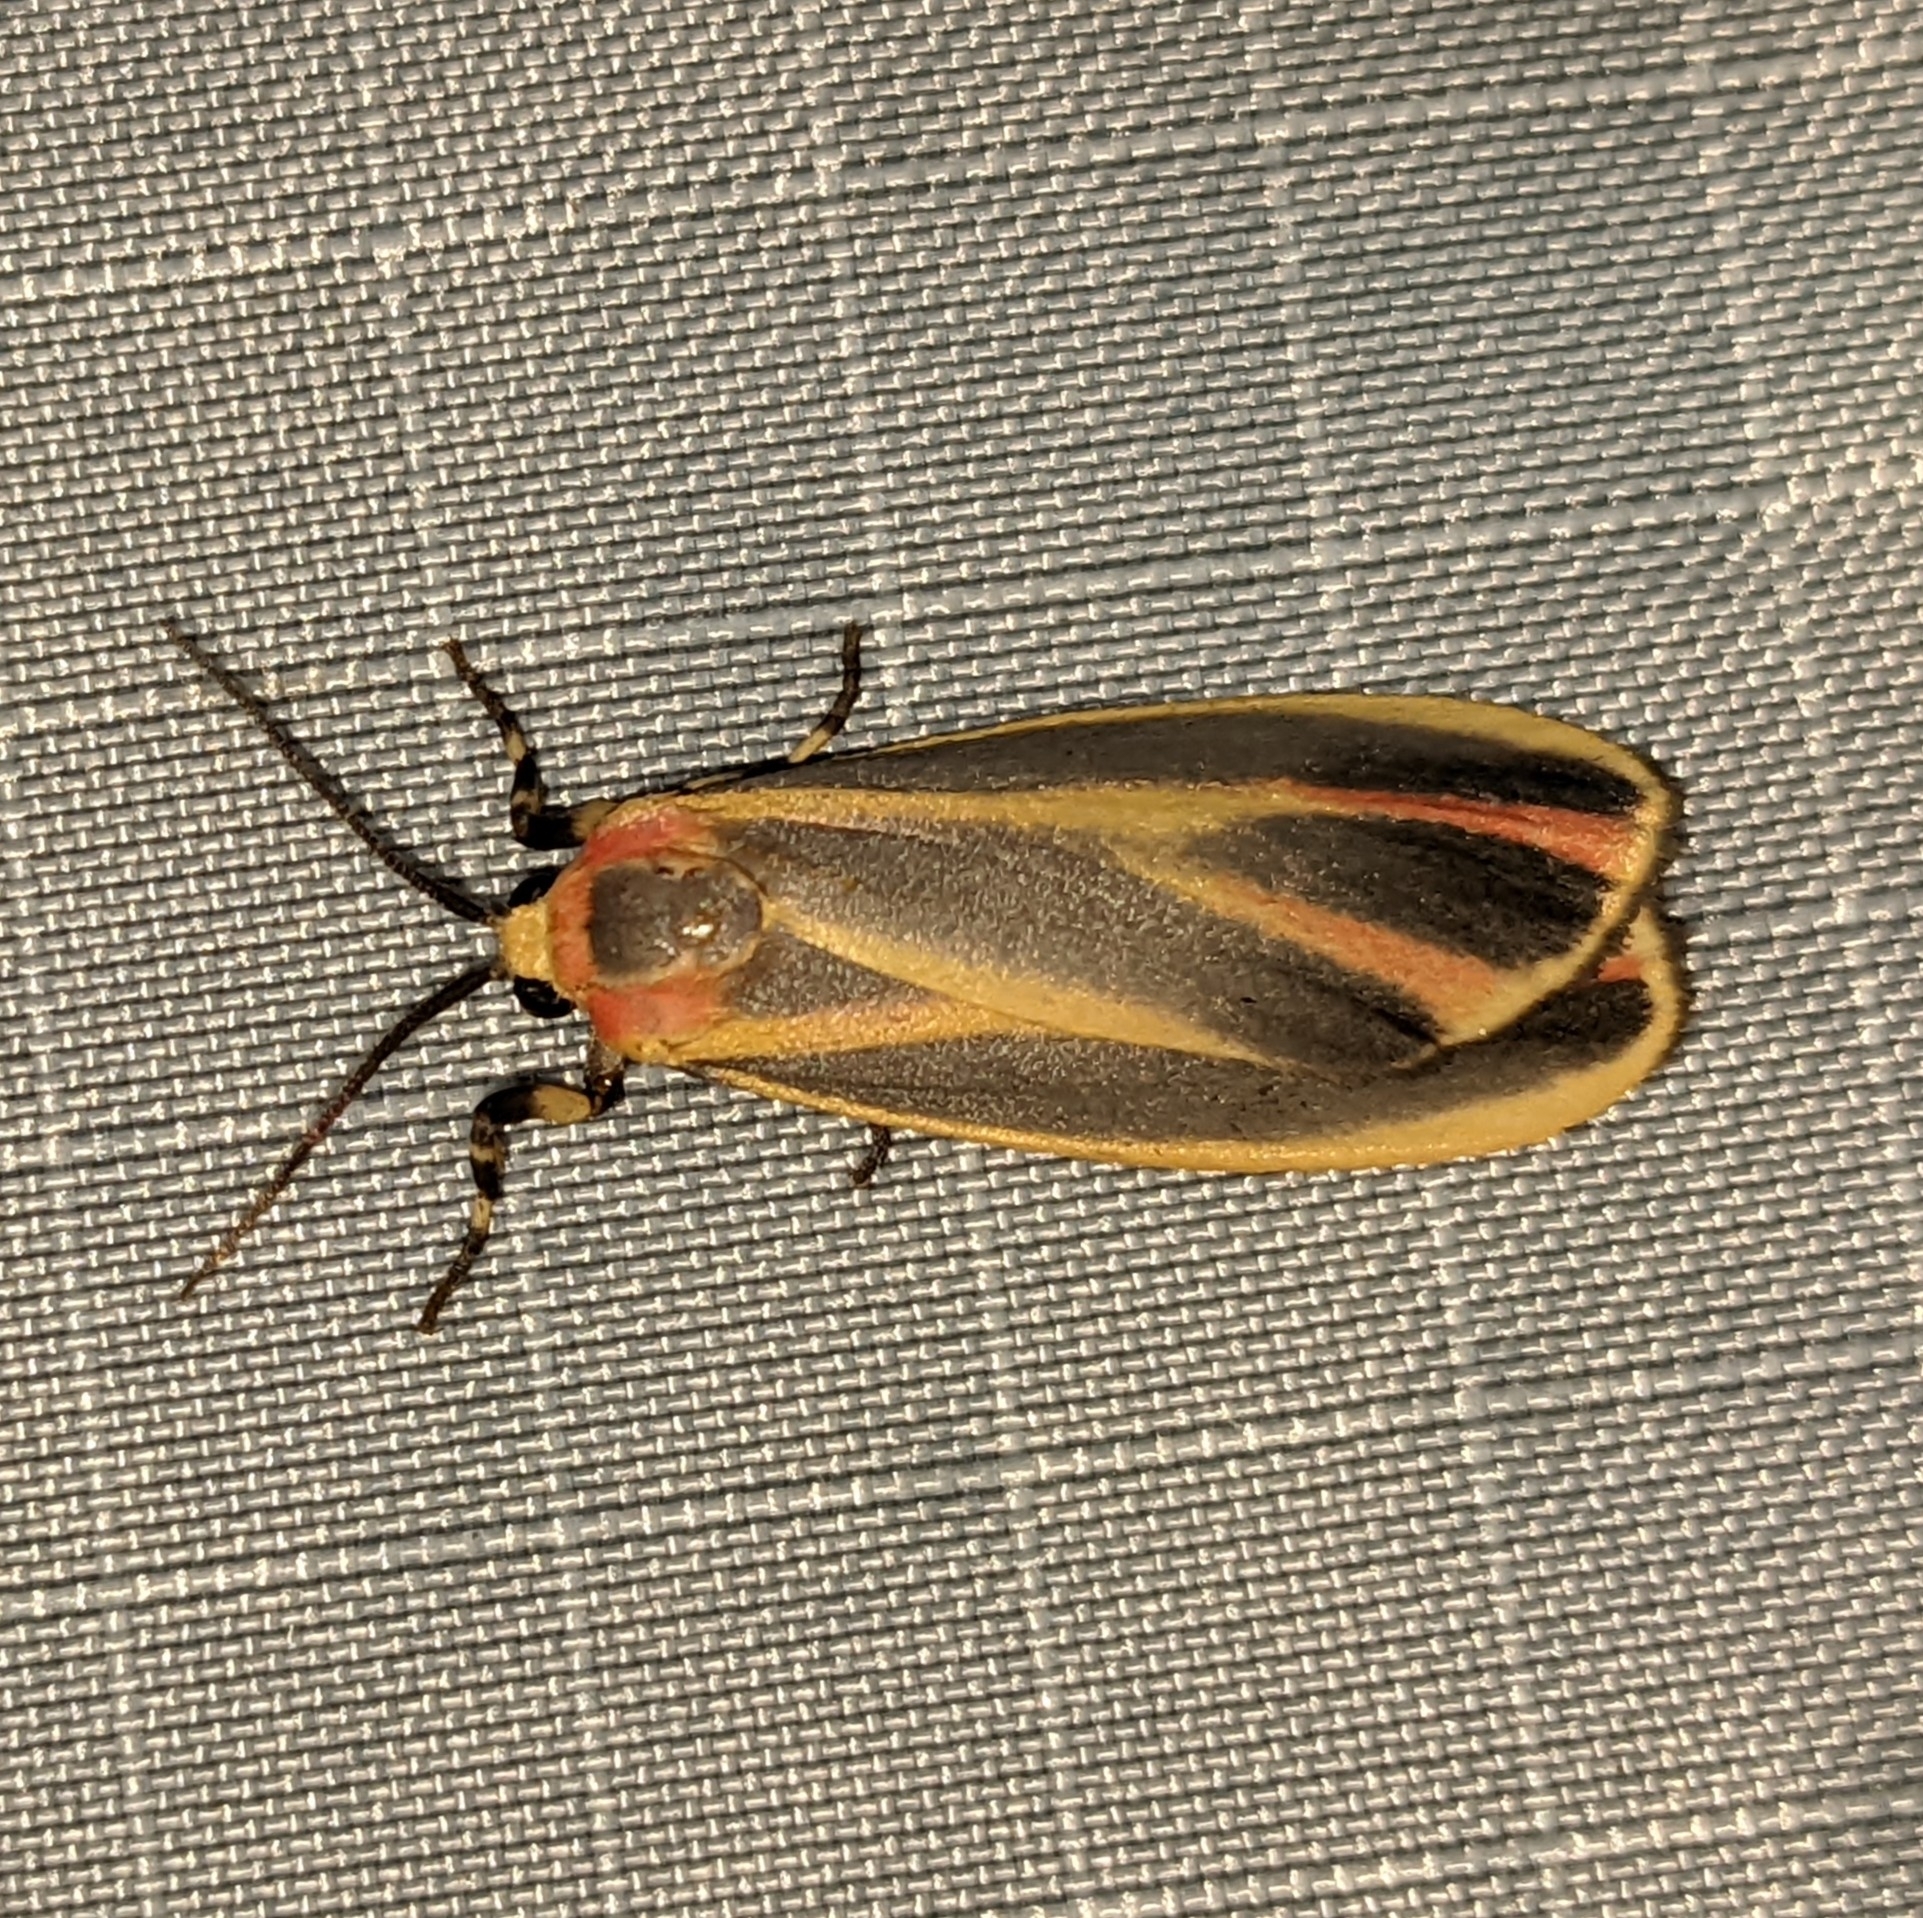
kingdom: Animalia
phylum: Arthropoda
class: Insecta
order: Lepidoptera
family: Erebidae
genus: Hypoprepia
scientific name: Hypoprepia fucosa
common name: Painted lichen moth
